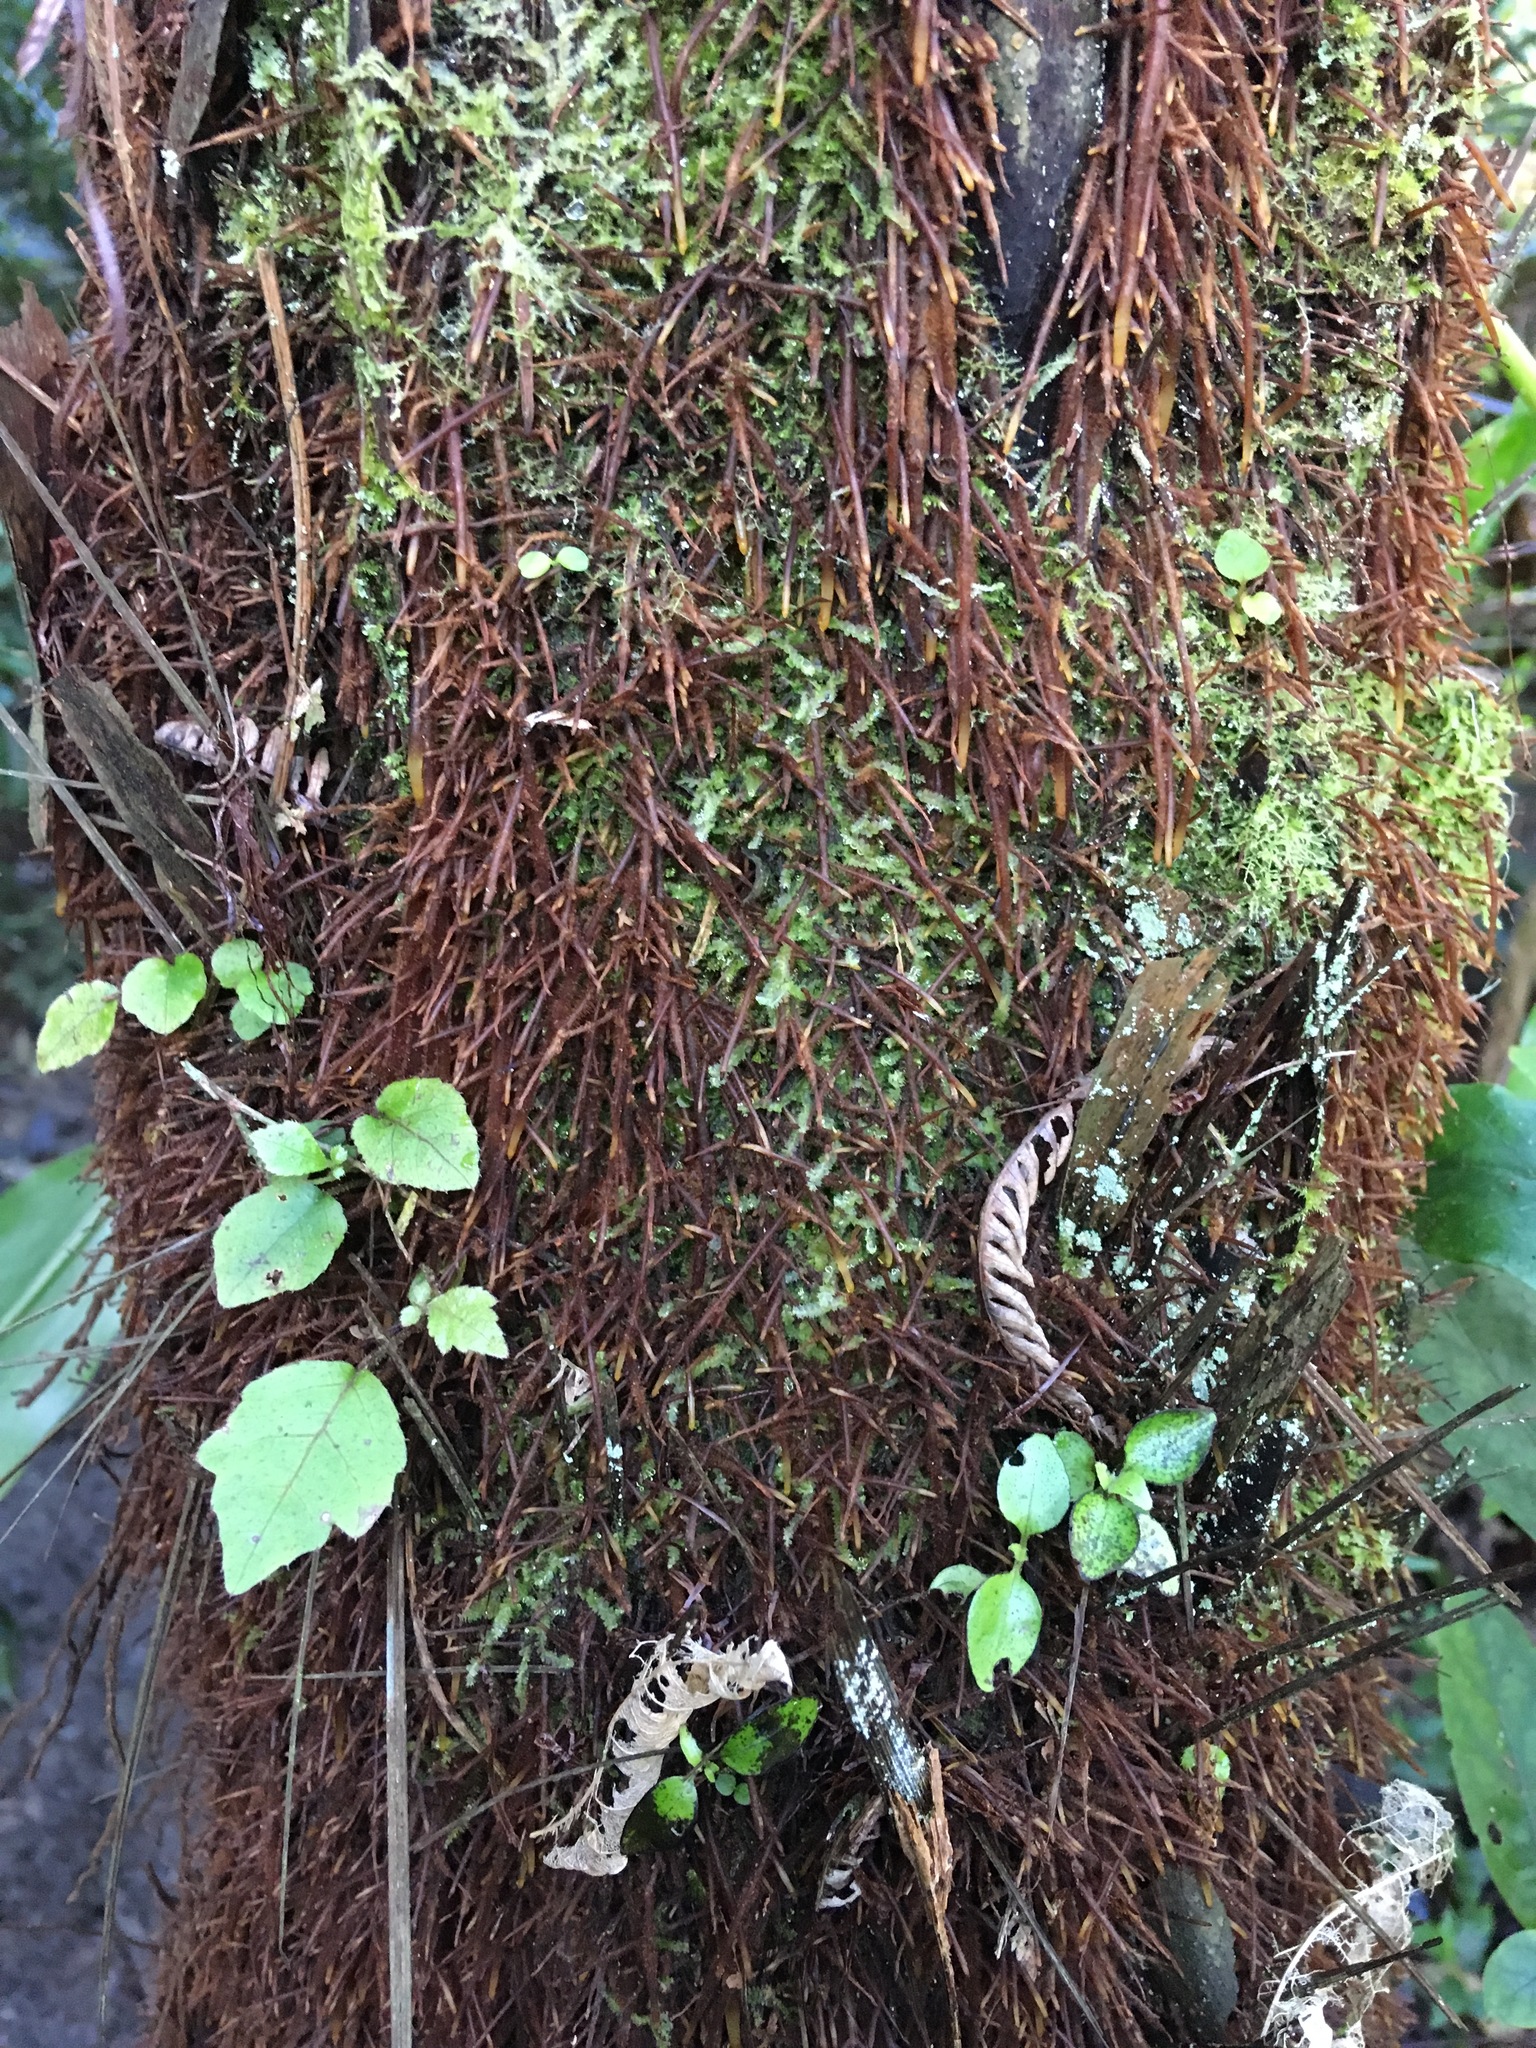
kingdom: Plantae
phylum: Tracheophyta
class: Magnoliopsida
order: Apiales
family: Araliaceae
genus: Schefflera
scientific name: Schefflera digitata
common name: Pate
